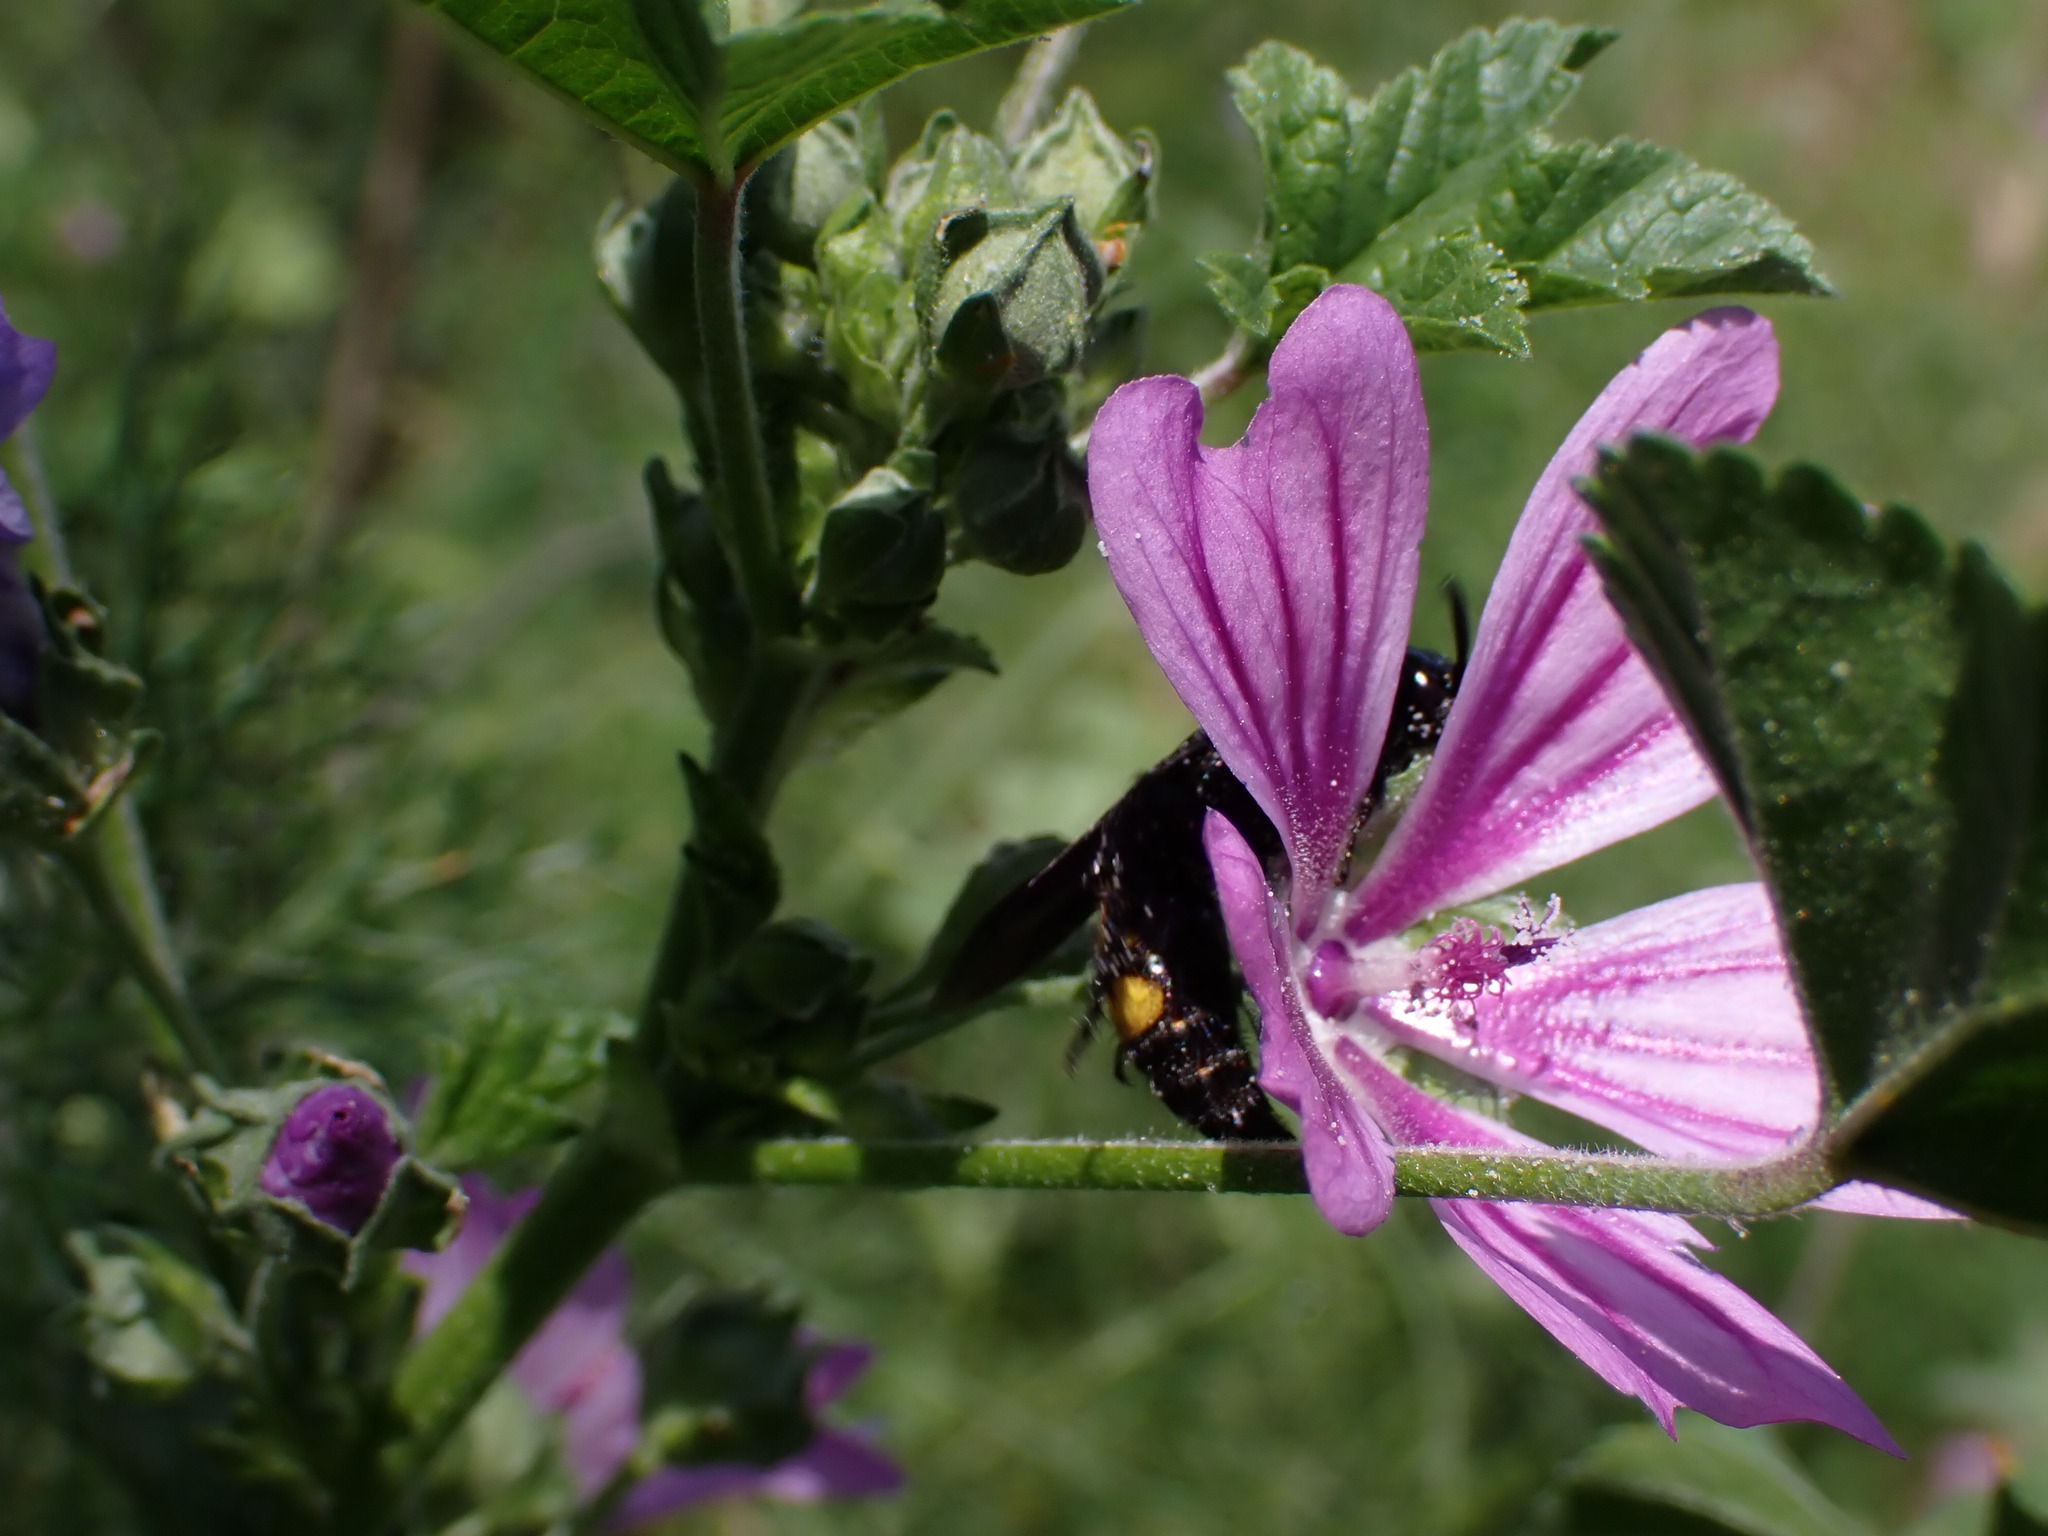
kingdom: Animalia
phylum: Arthropoda
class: Insecta
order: Hymenoptera
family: Scoliidae
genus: Scolia
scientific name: Scolia hirta
